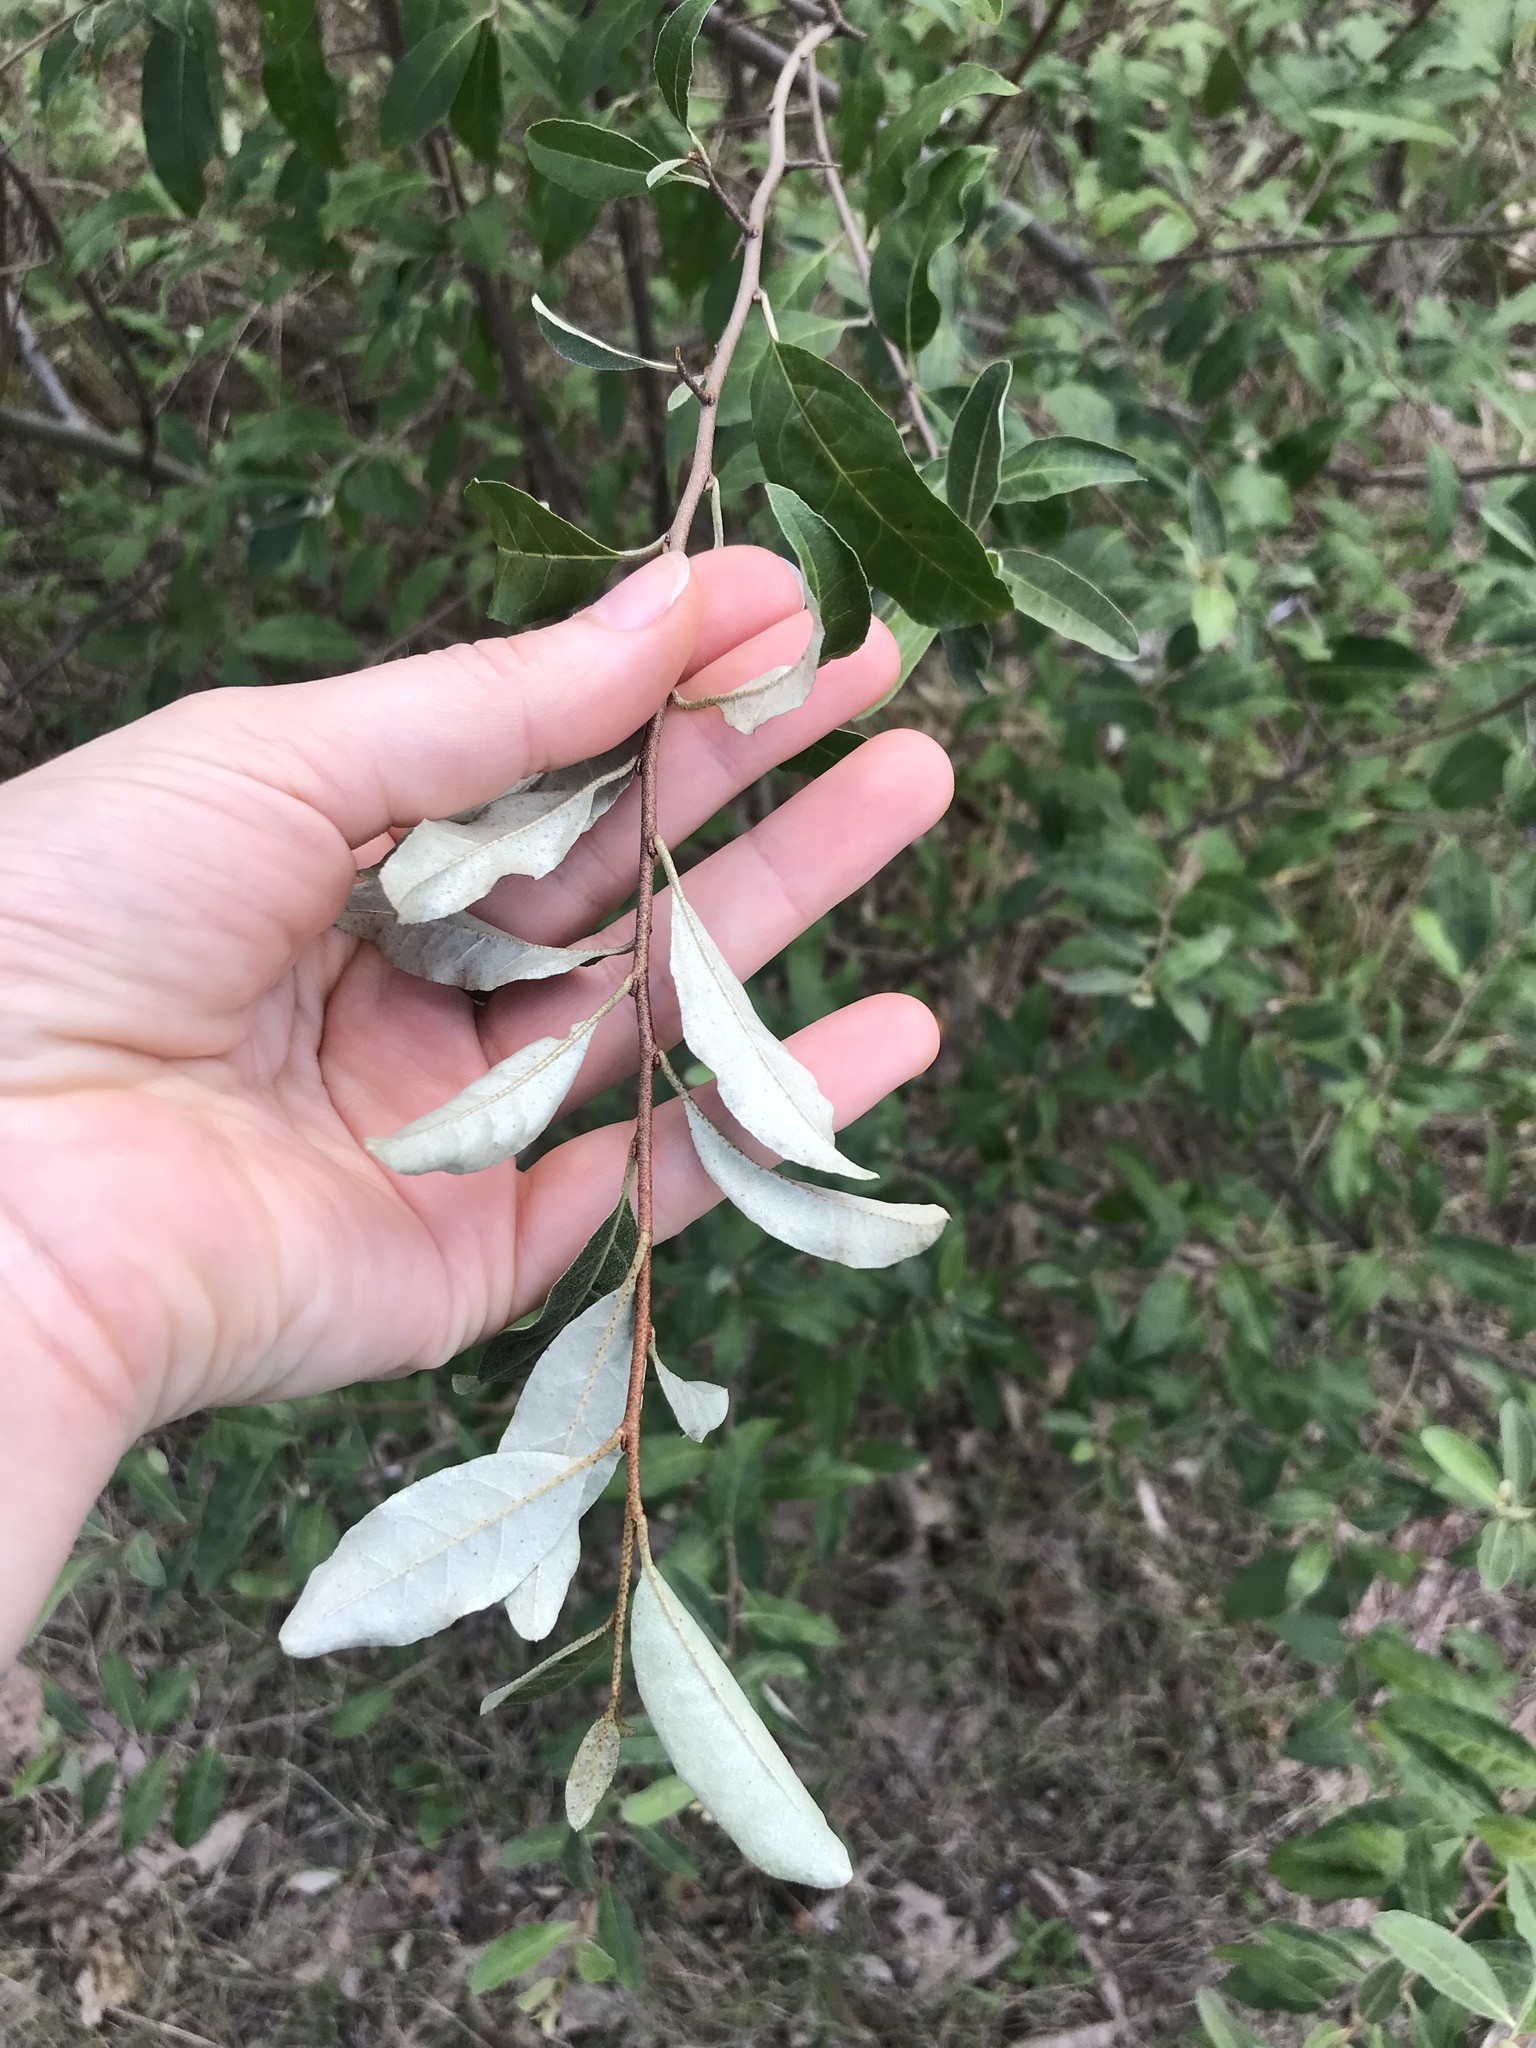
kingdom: Plantae
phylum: Tracheophyta
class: Magnoliopsida
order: Rosales
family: Elaeagnaceae
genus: Elaeagnus
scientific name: Elaeagnus umbellata
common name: Autumn olive
